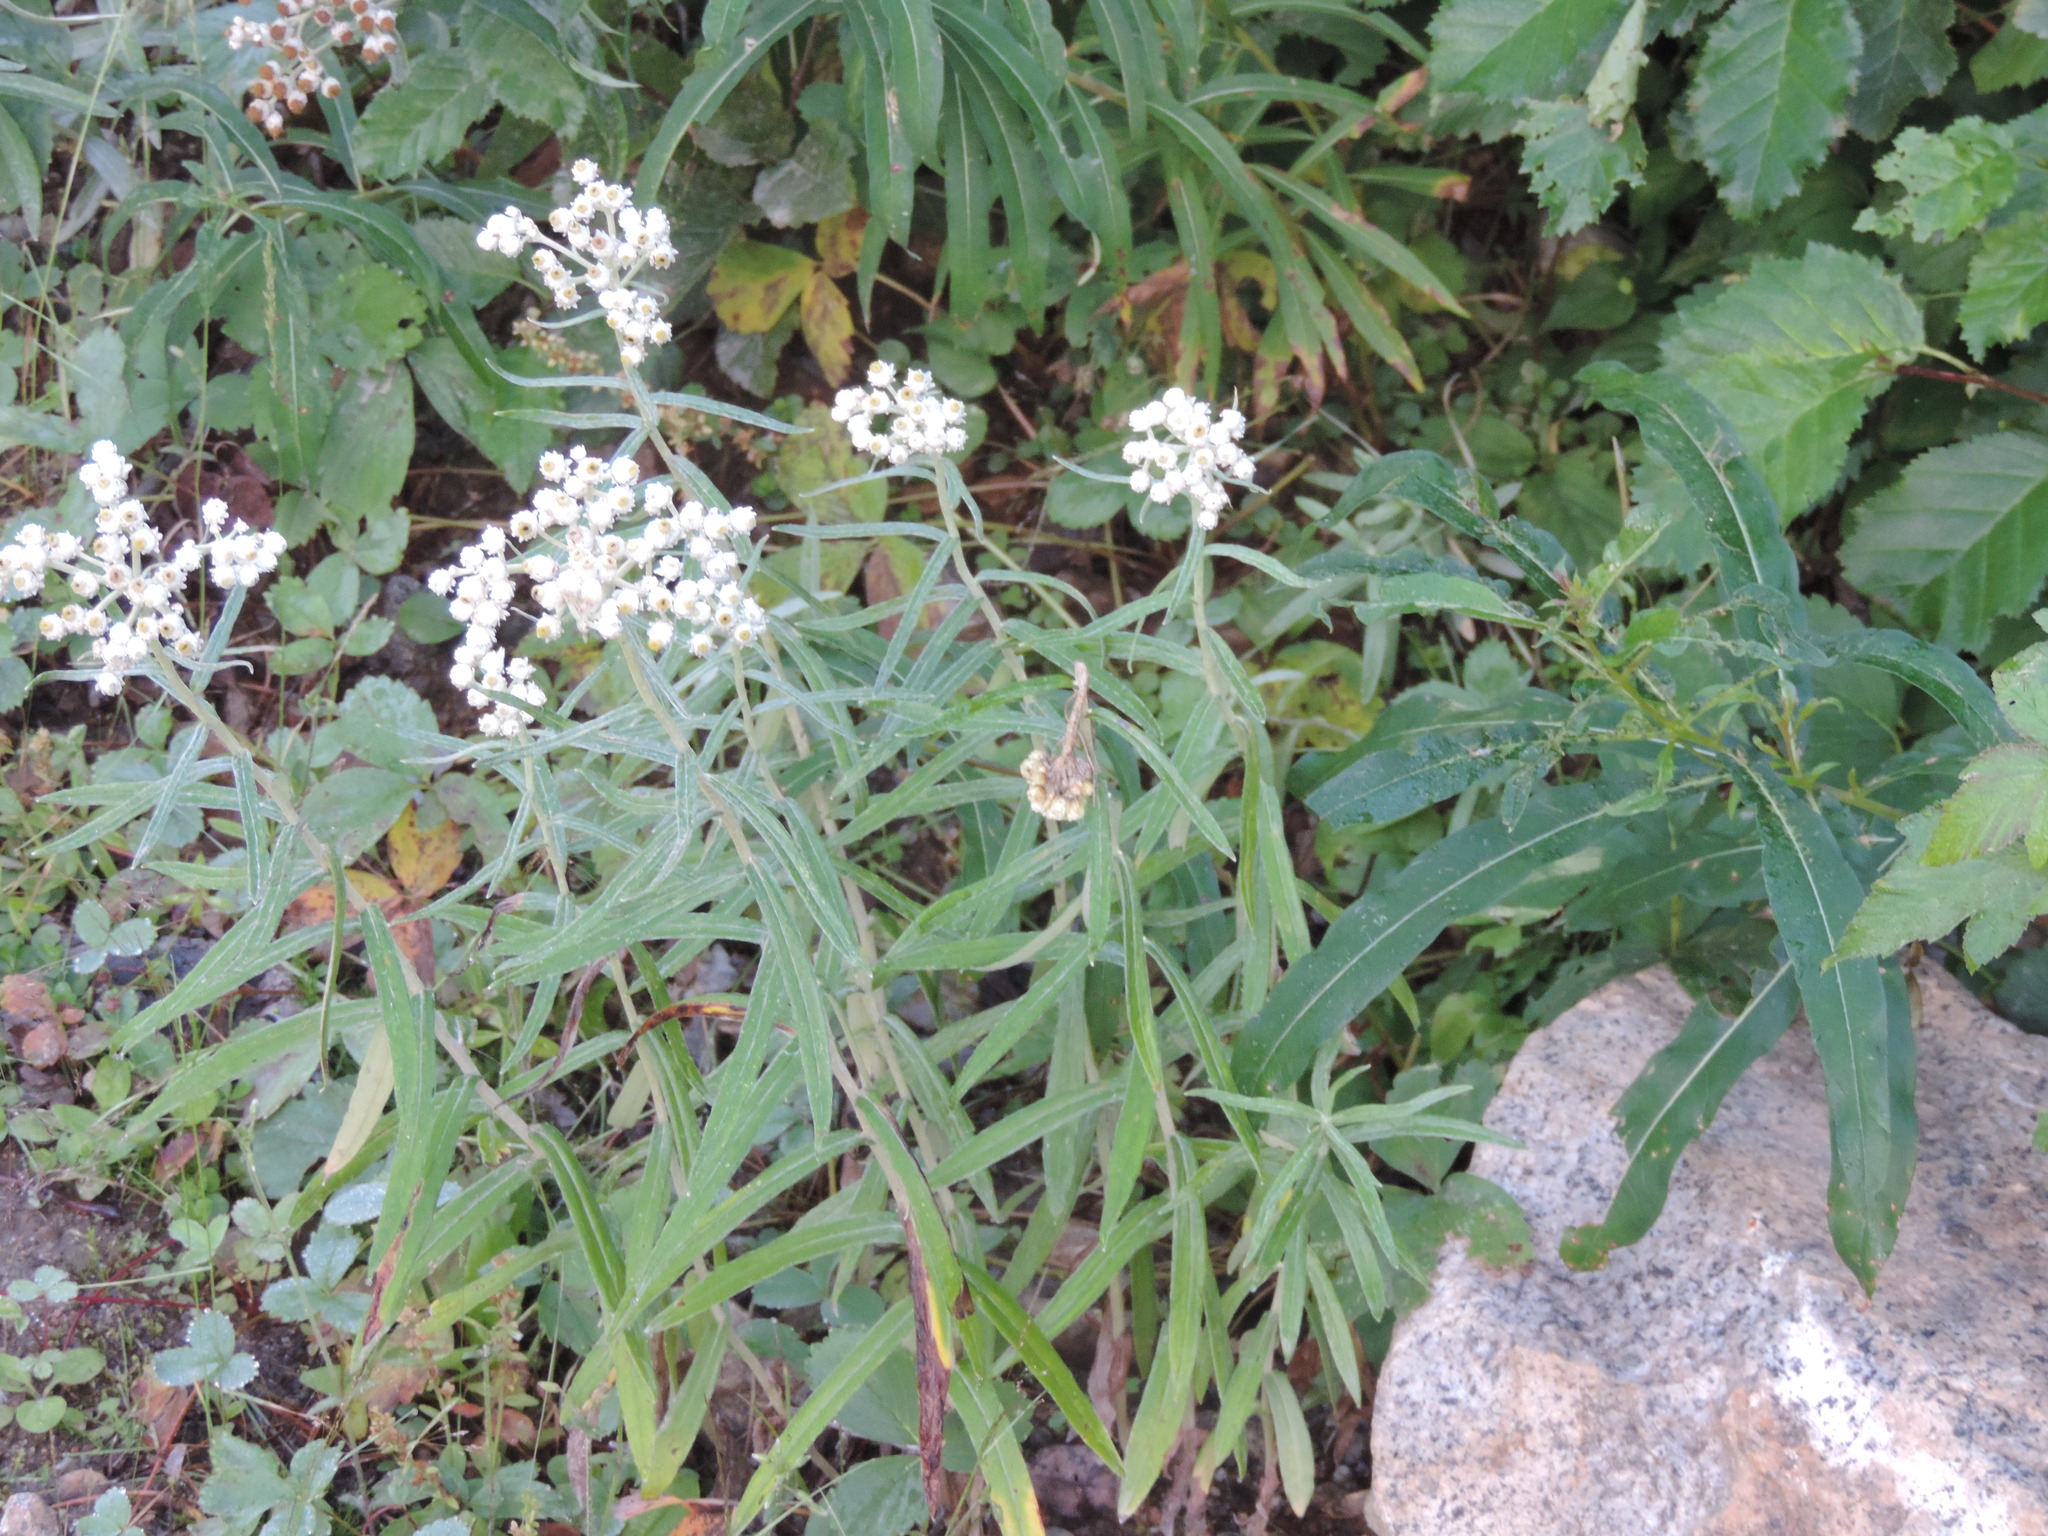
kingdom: Plantae
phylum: Tracheophyta
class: Magnoliopsida
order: Asterales
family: Asteraceae
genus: Anaphalis
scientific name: Anaphalis margaritacea
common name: Pearly everlasting
